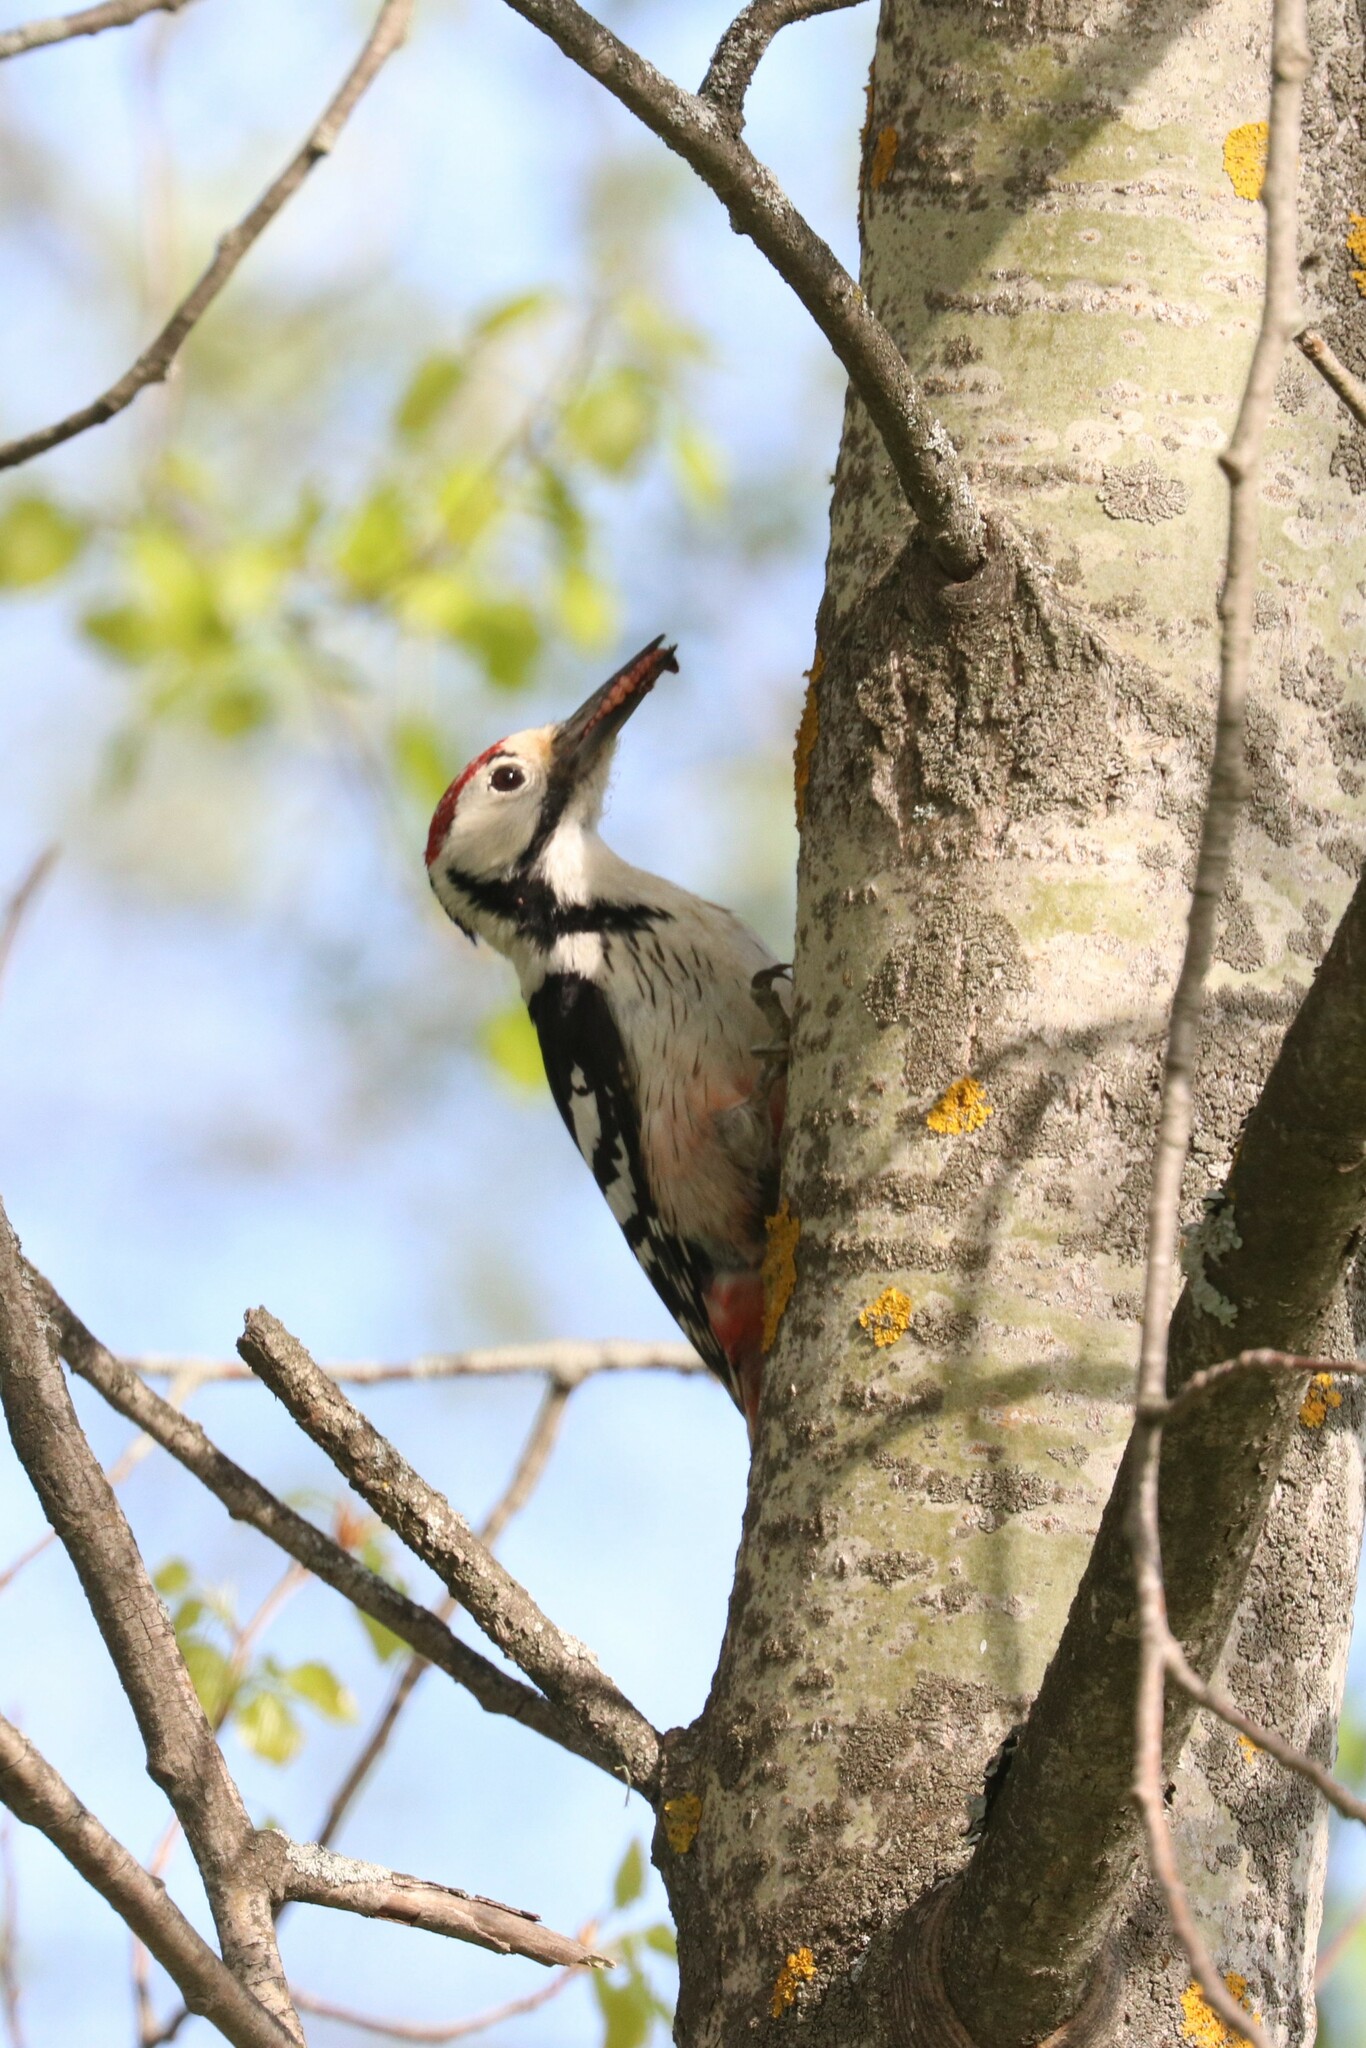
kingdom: Animalia
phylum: Chordata
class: Aves
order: Piciformes
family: Picidae
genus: Dendrocopos
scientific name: Dendrocopos leucotos
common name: White-backed woodpecker
